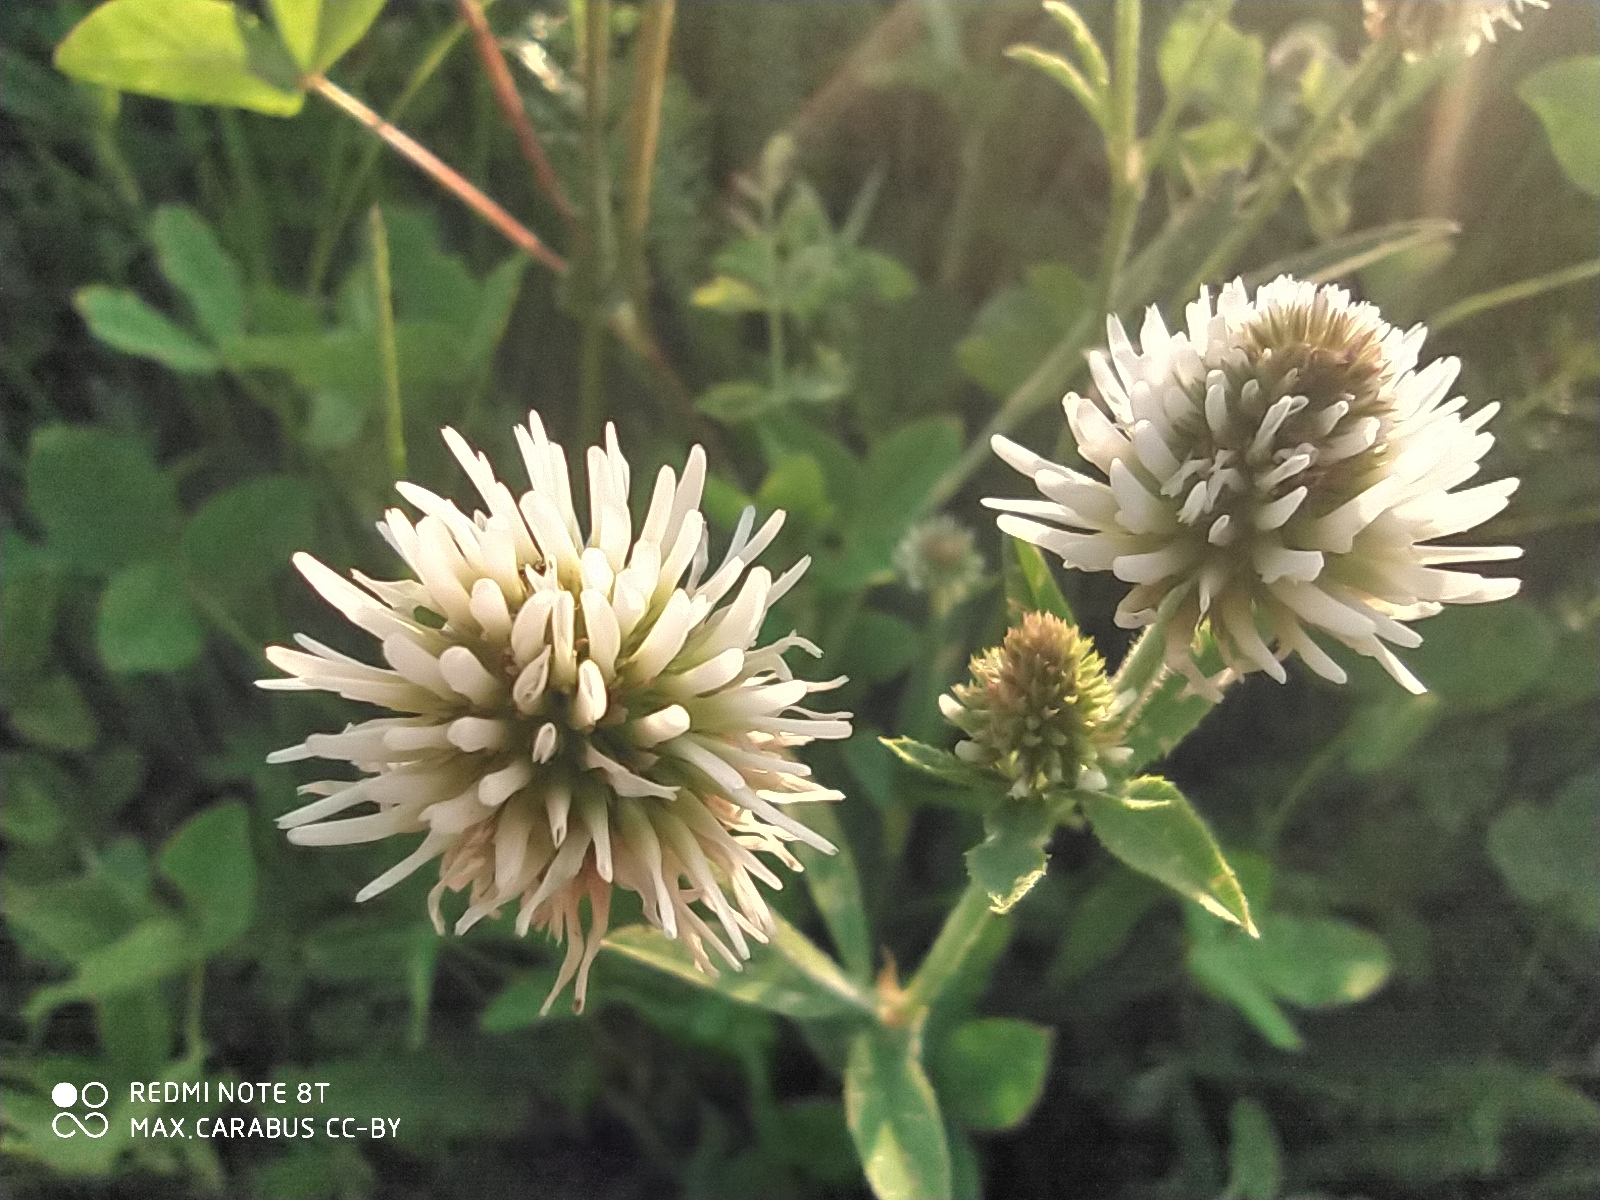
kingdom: Plantae
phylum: Tracheophyta
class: Magnoliopsida
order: Fabales
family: Fabaceae
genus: Trifolium
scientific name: Trifolium montanum
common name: Mountain clover
